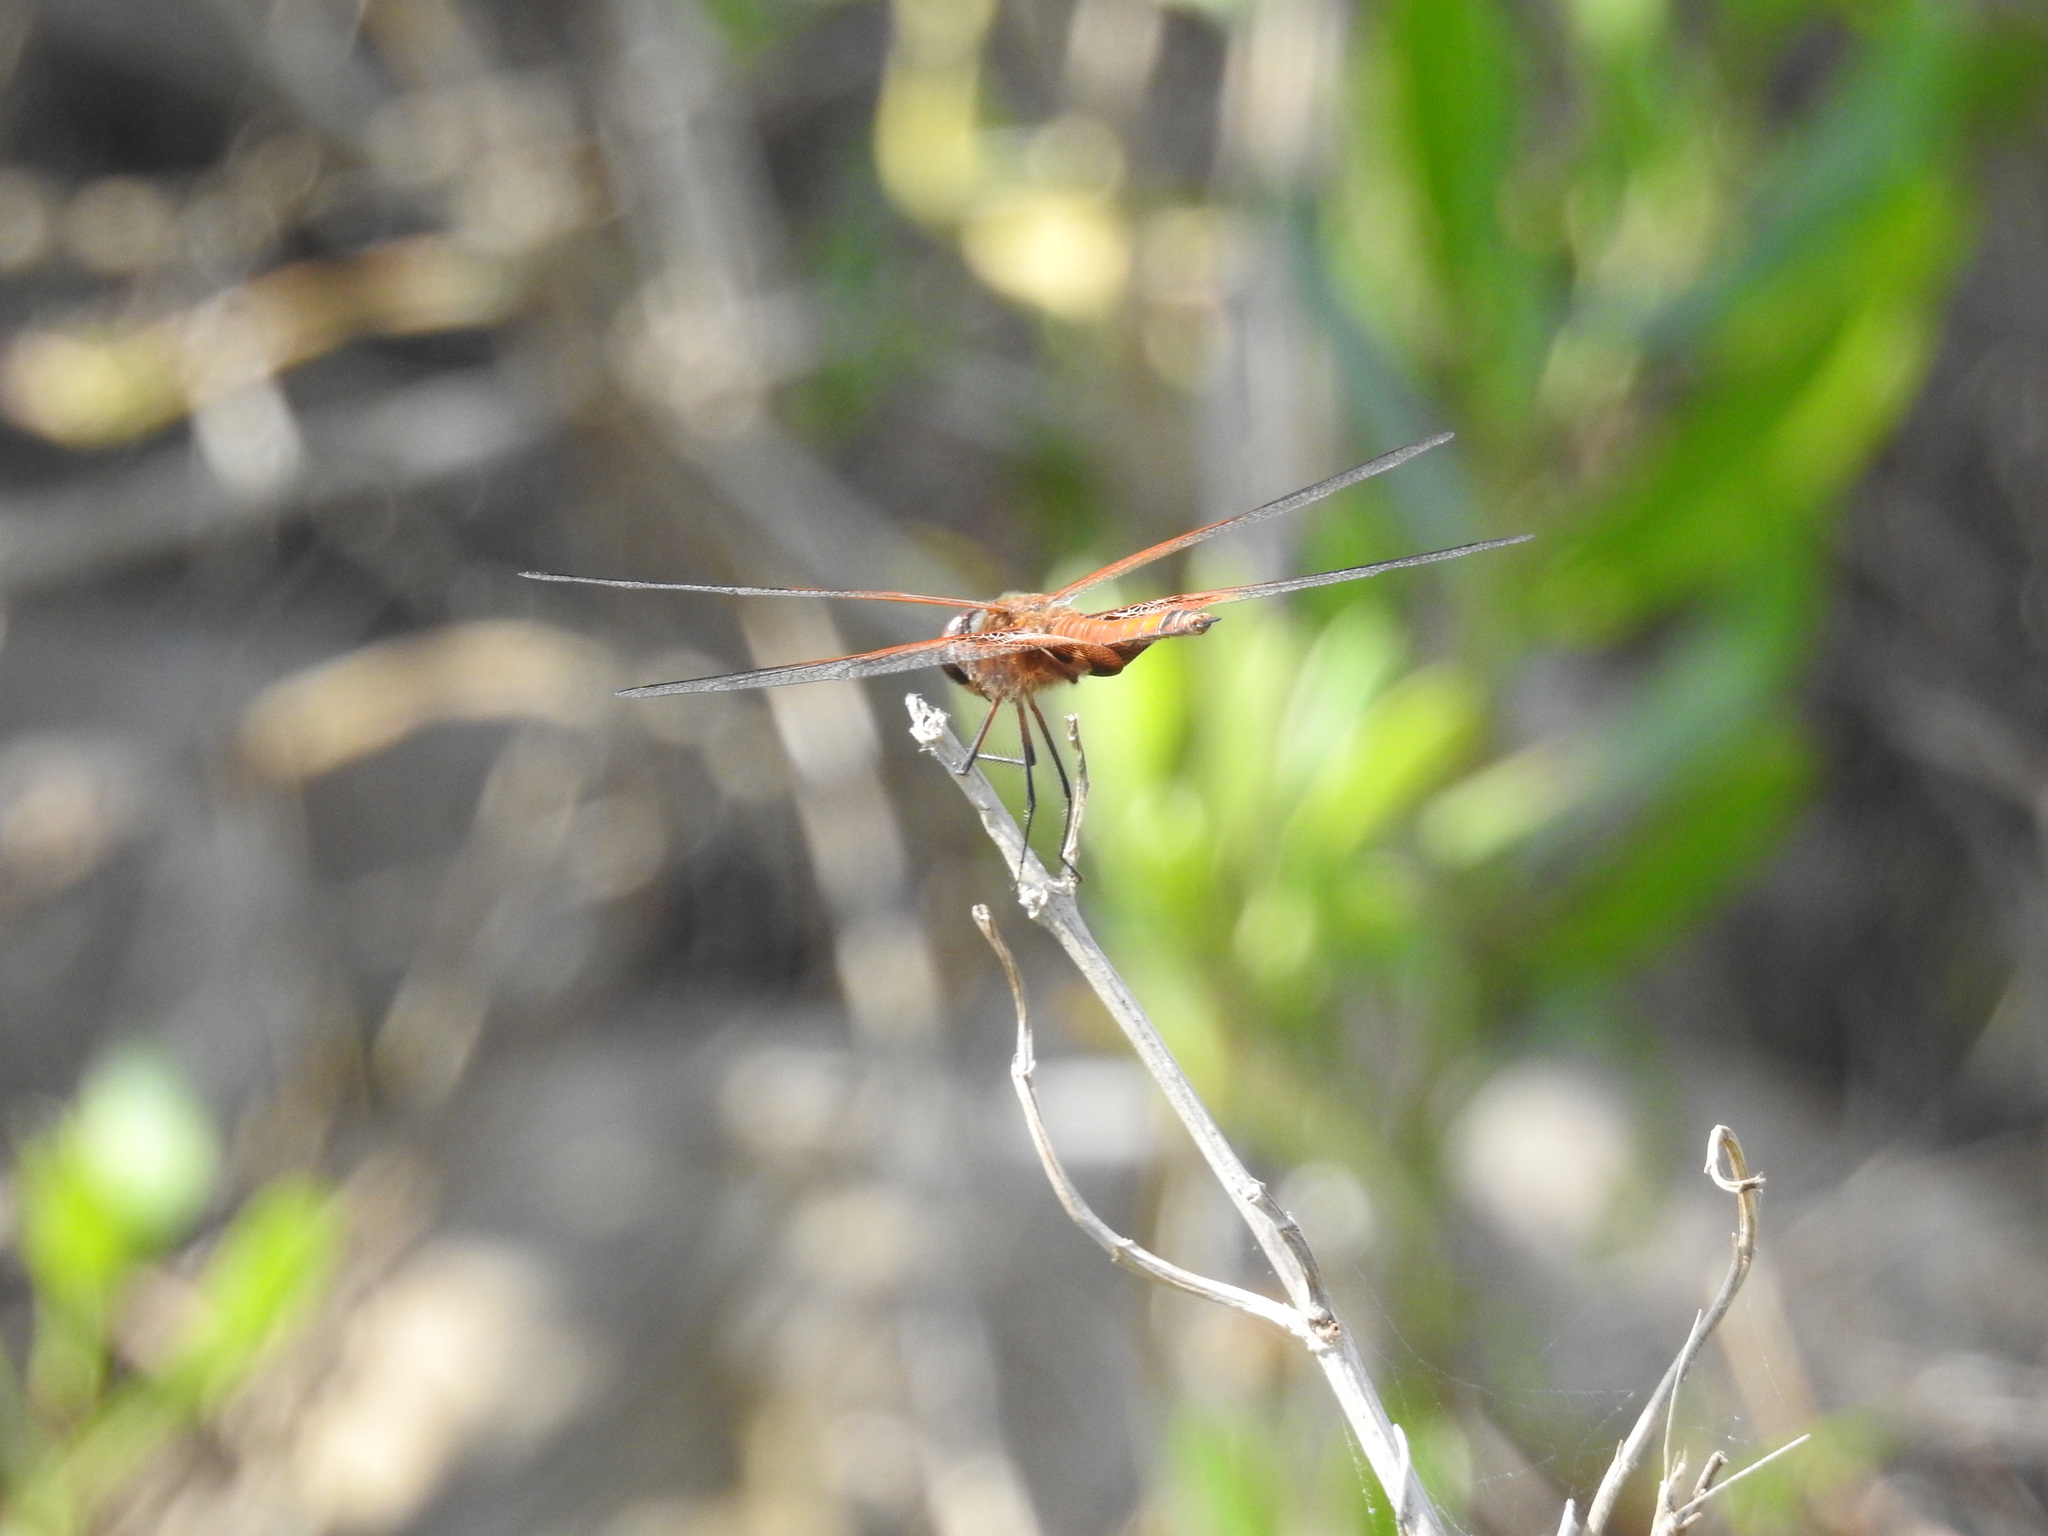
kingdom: Animalia
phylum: Arthropoda
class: Insecta
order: Odonata
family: Libellulidae
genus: Tramea
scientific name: Tramea carolina
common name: Carolina saddlebags
